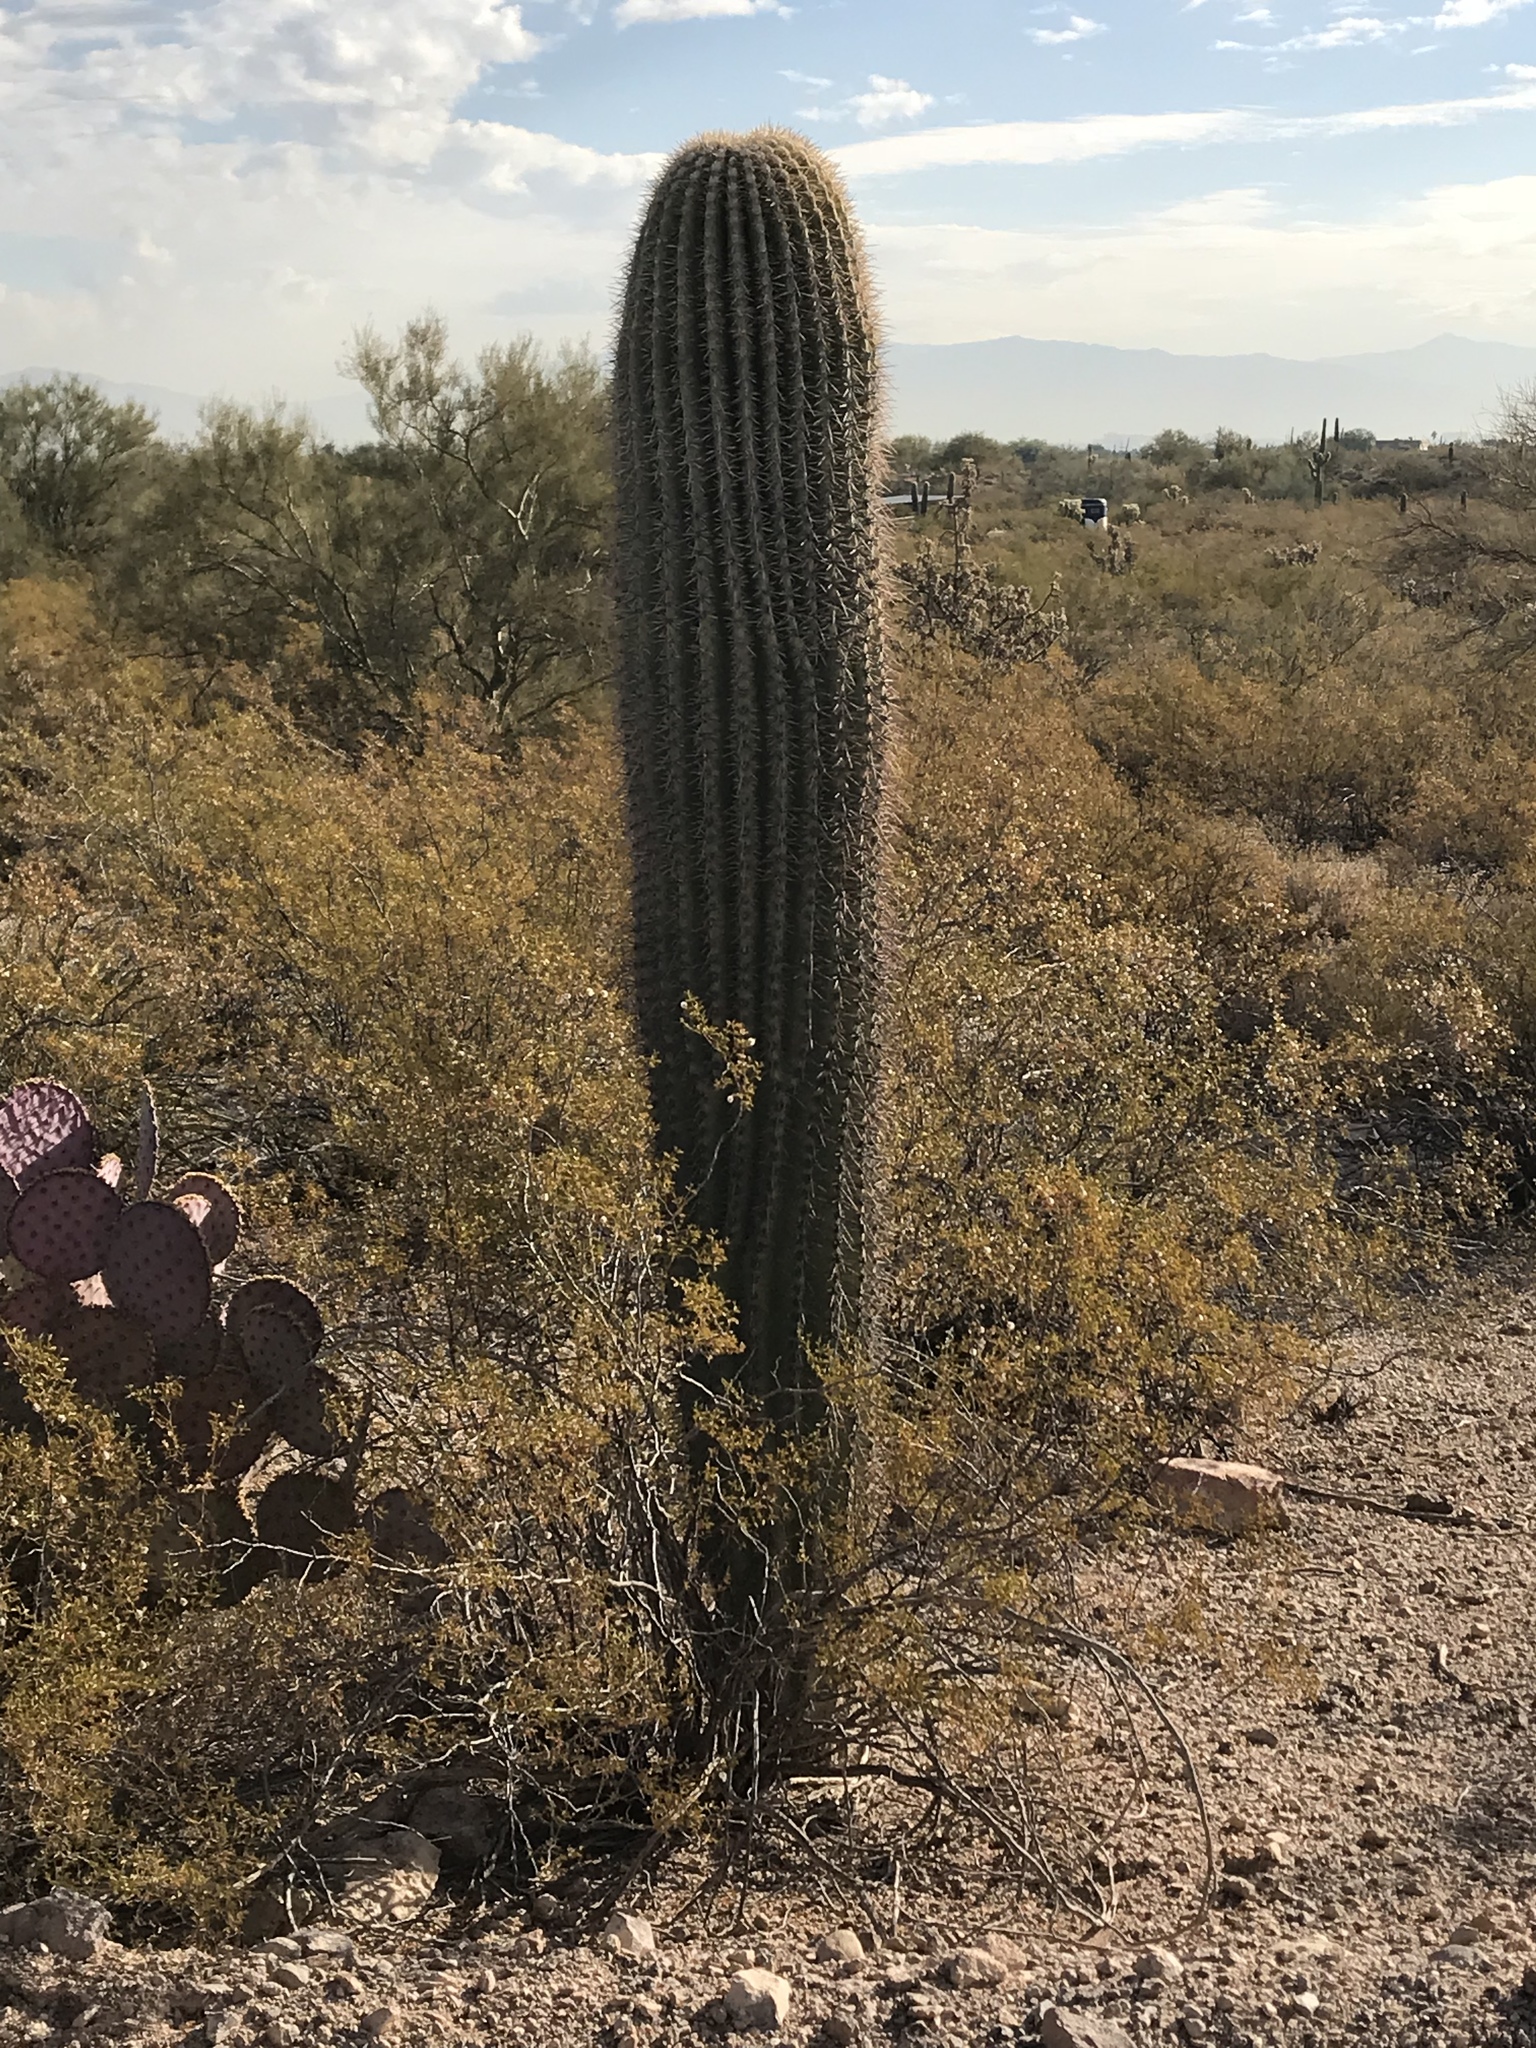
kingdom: Plantae
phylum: Tracheophyta
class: Magnoliopsida
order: Caryophyllales
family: Cactaceae
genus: Carnegiea
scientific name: Carnegiea gigantea
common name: Saguaro
